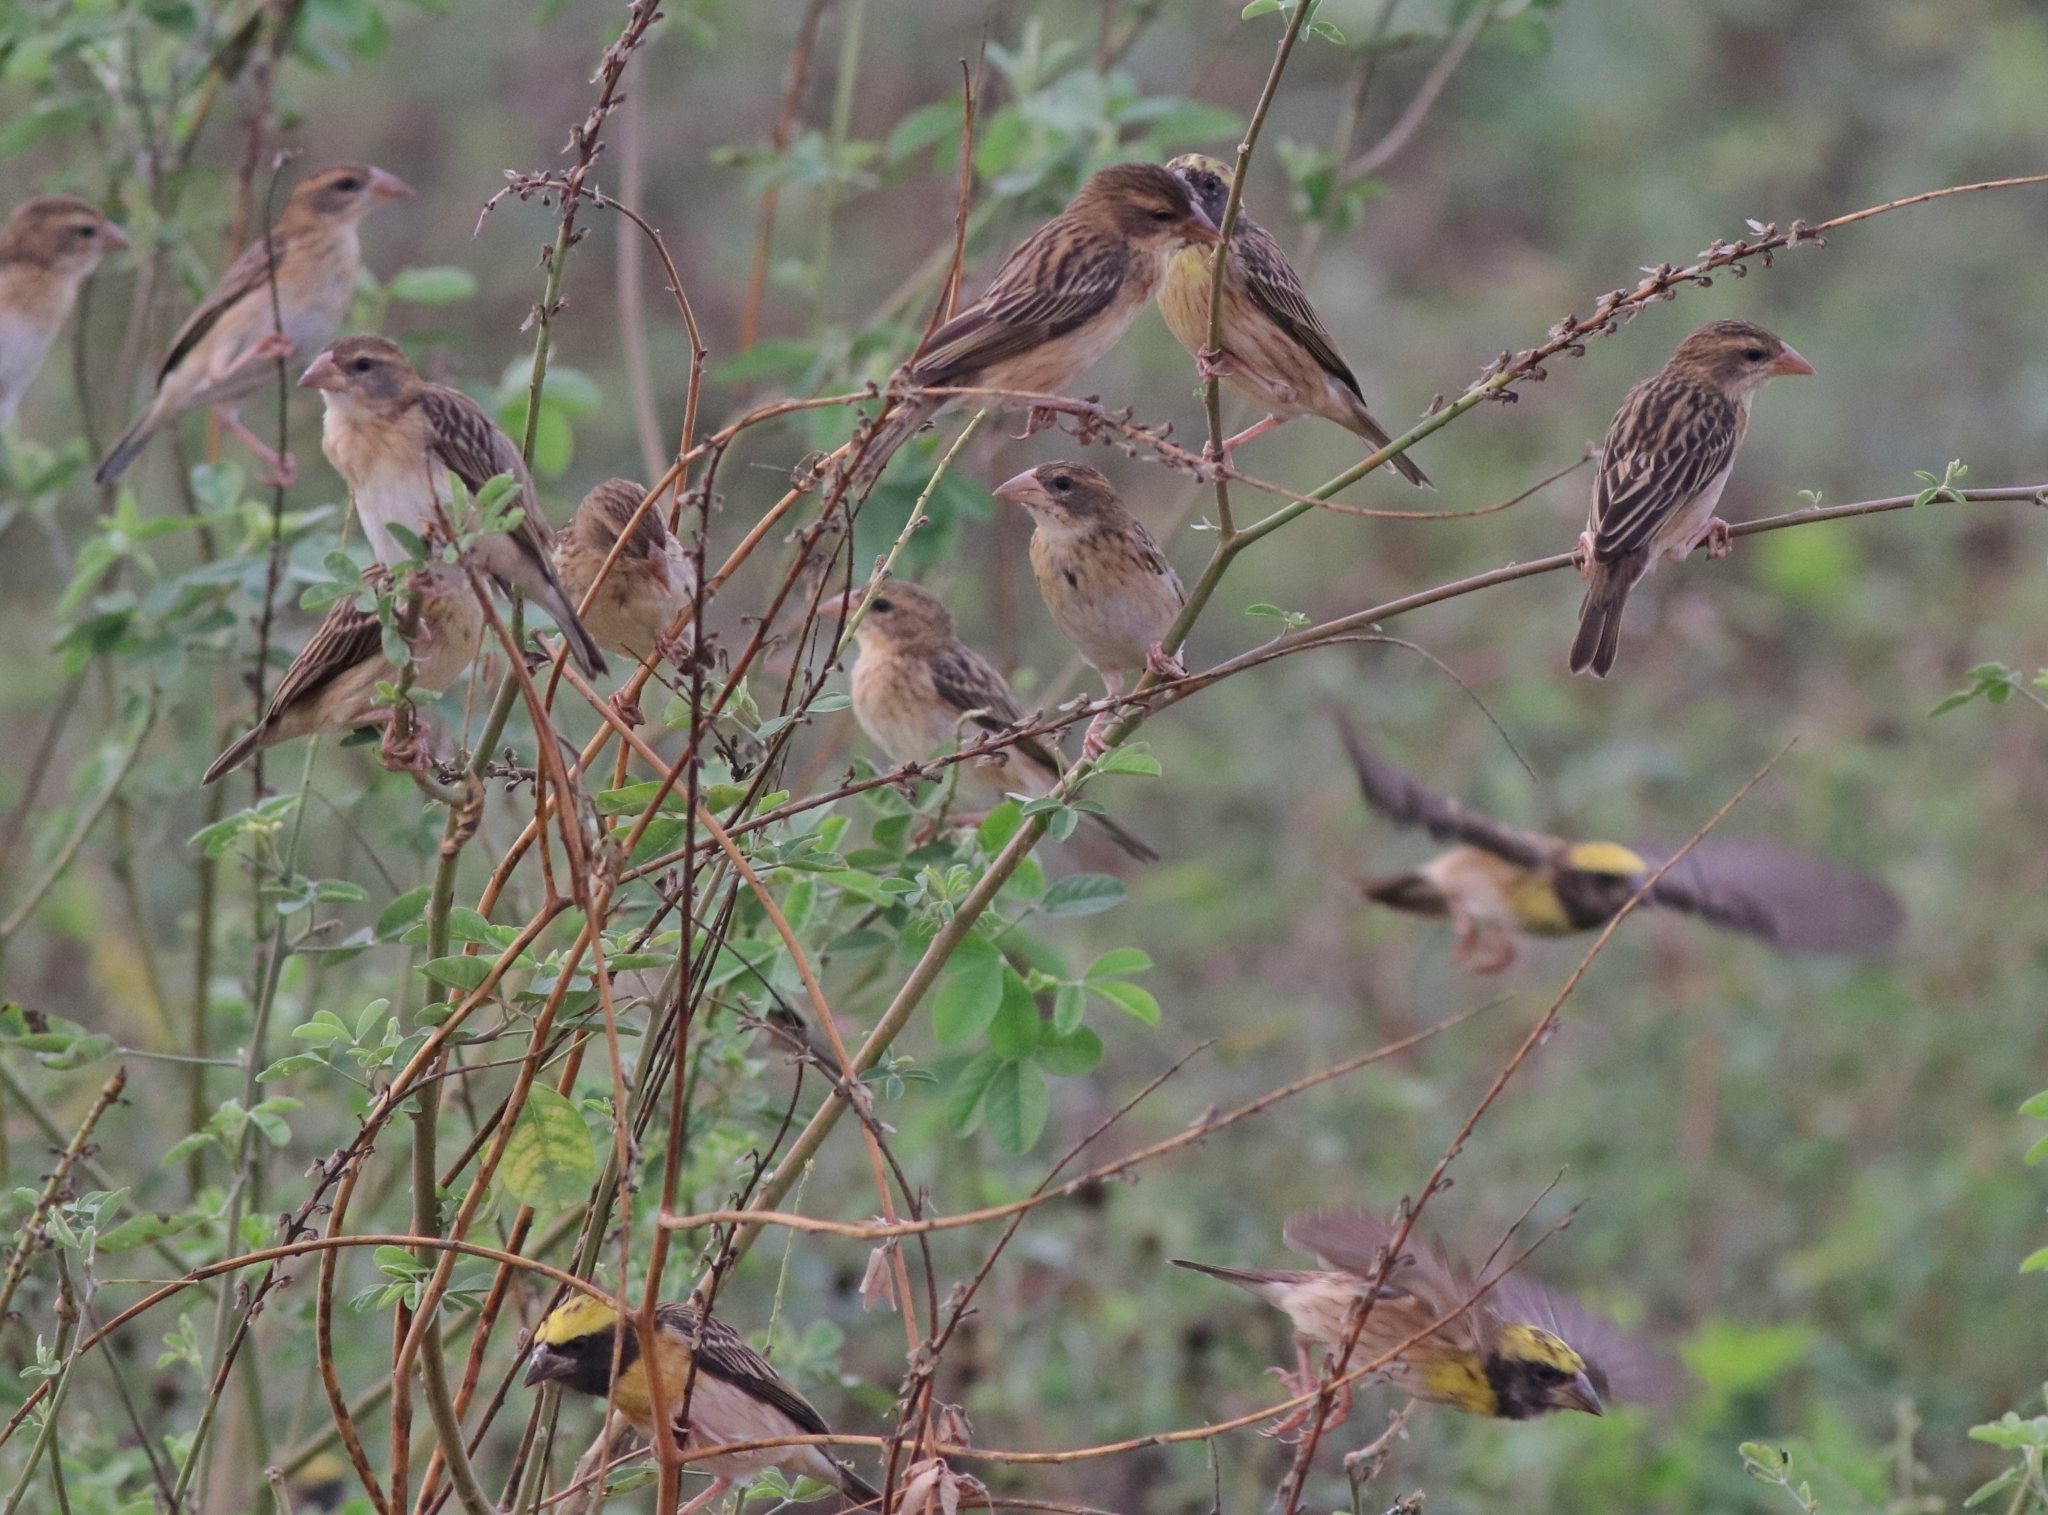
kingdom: Animalia
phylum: Chordata
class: Aves
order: Passeriformes
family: Ploceidae
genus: Ploceus
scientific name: Ploceus philippinus
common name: Baya weaver
